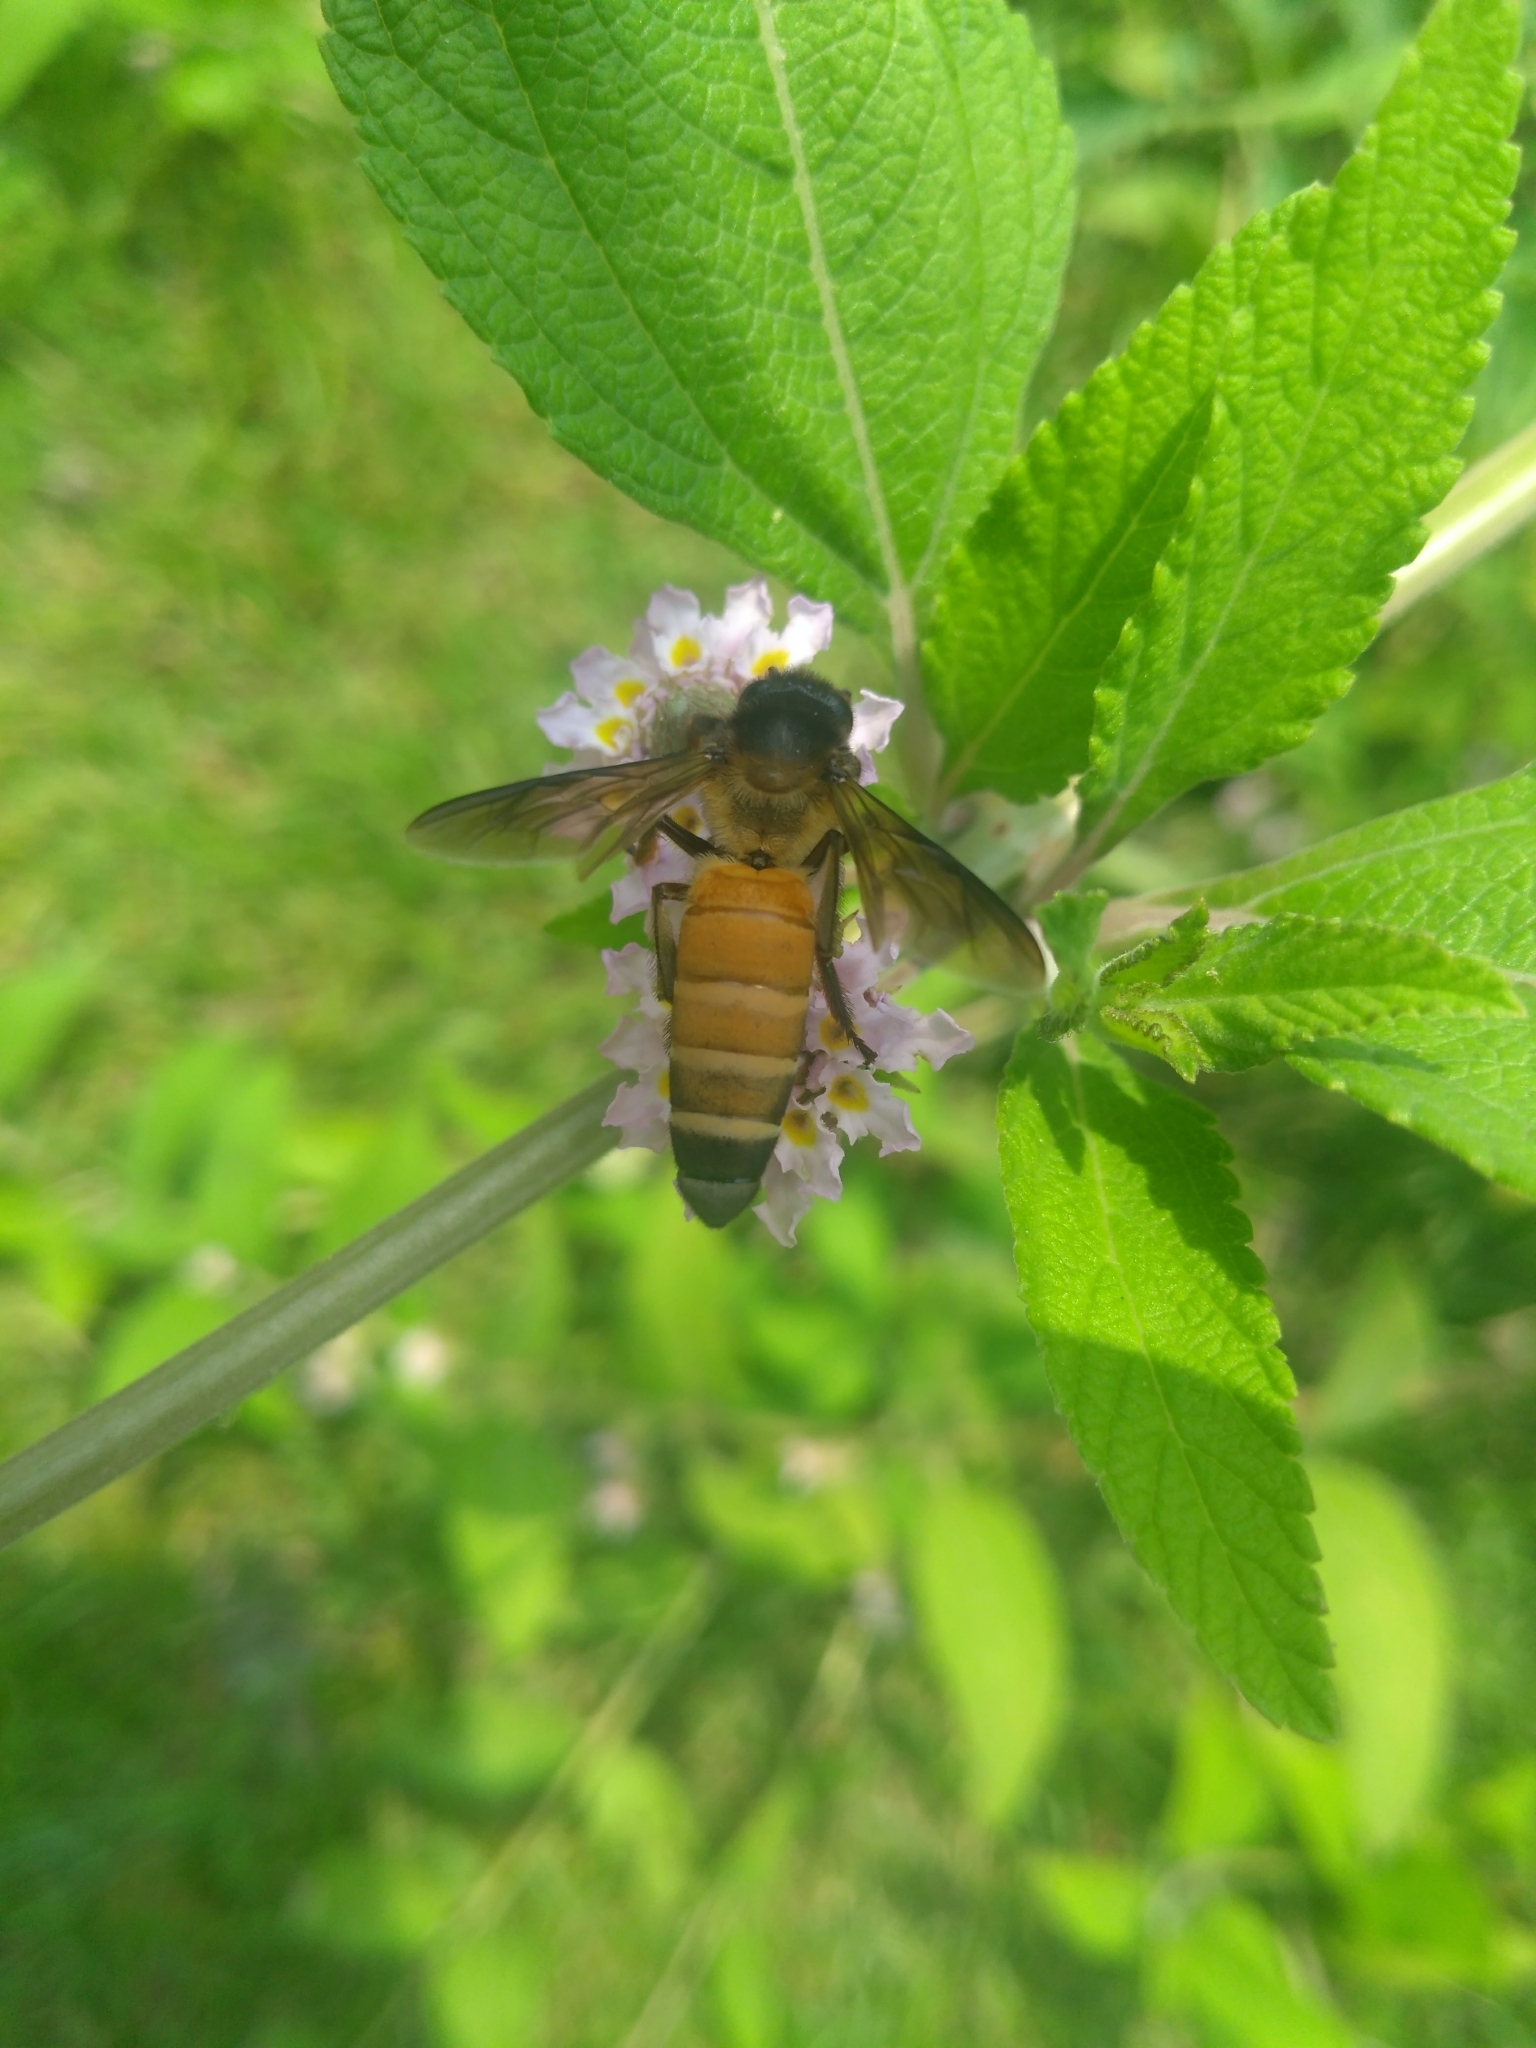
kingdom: Animalia
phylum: Arthropoda
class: Insecta
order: Hymenoptera
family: Apidae
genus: Apis
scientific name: Apis dorsata
